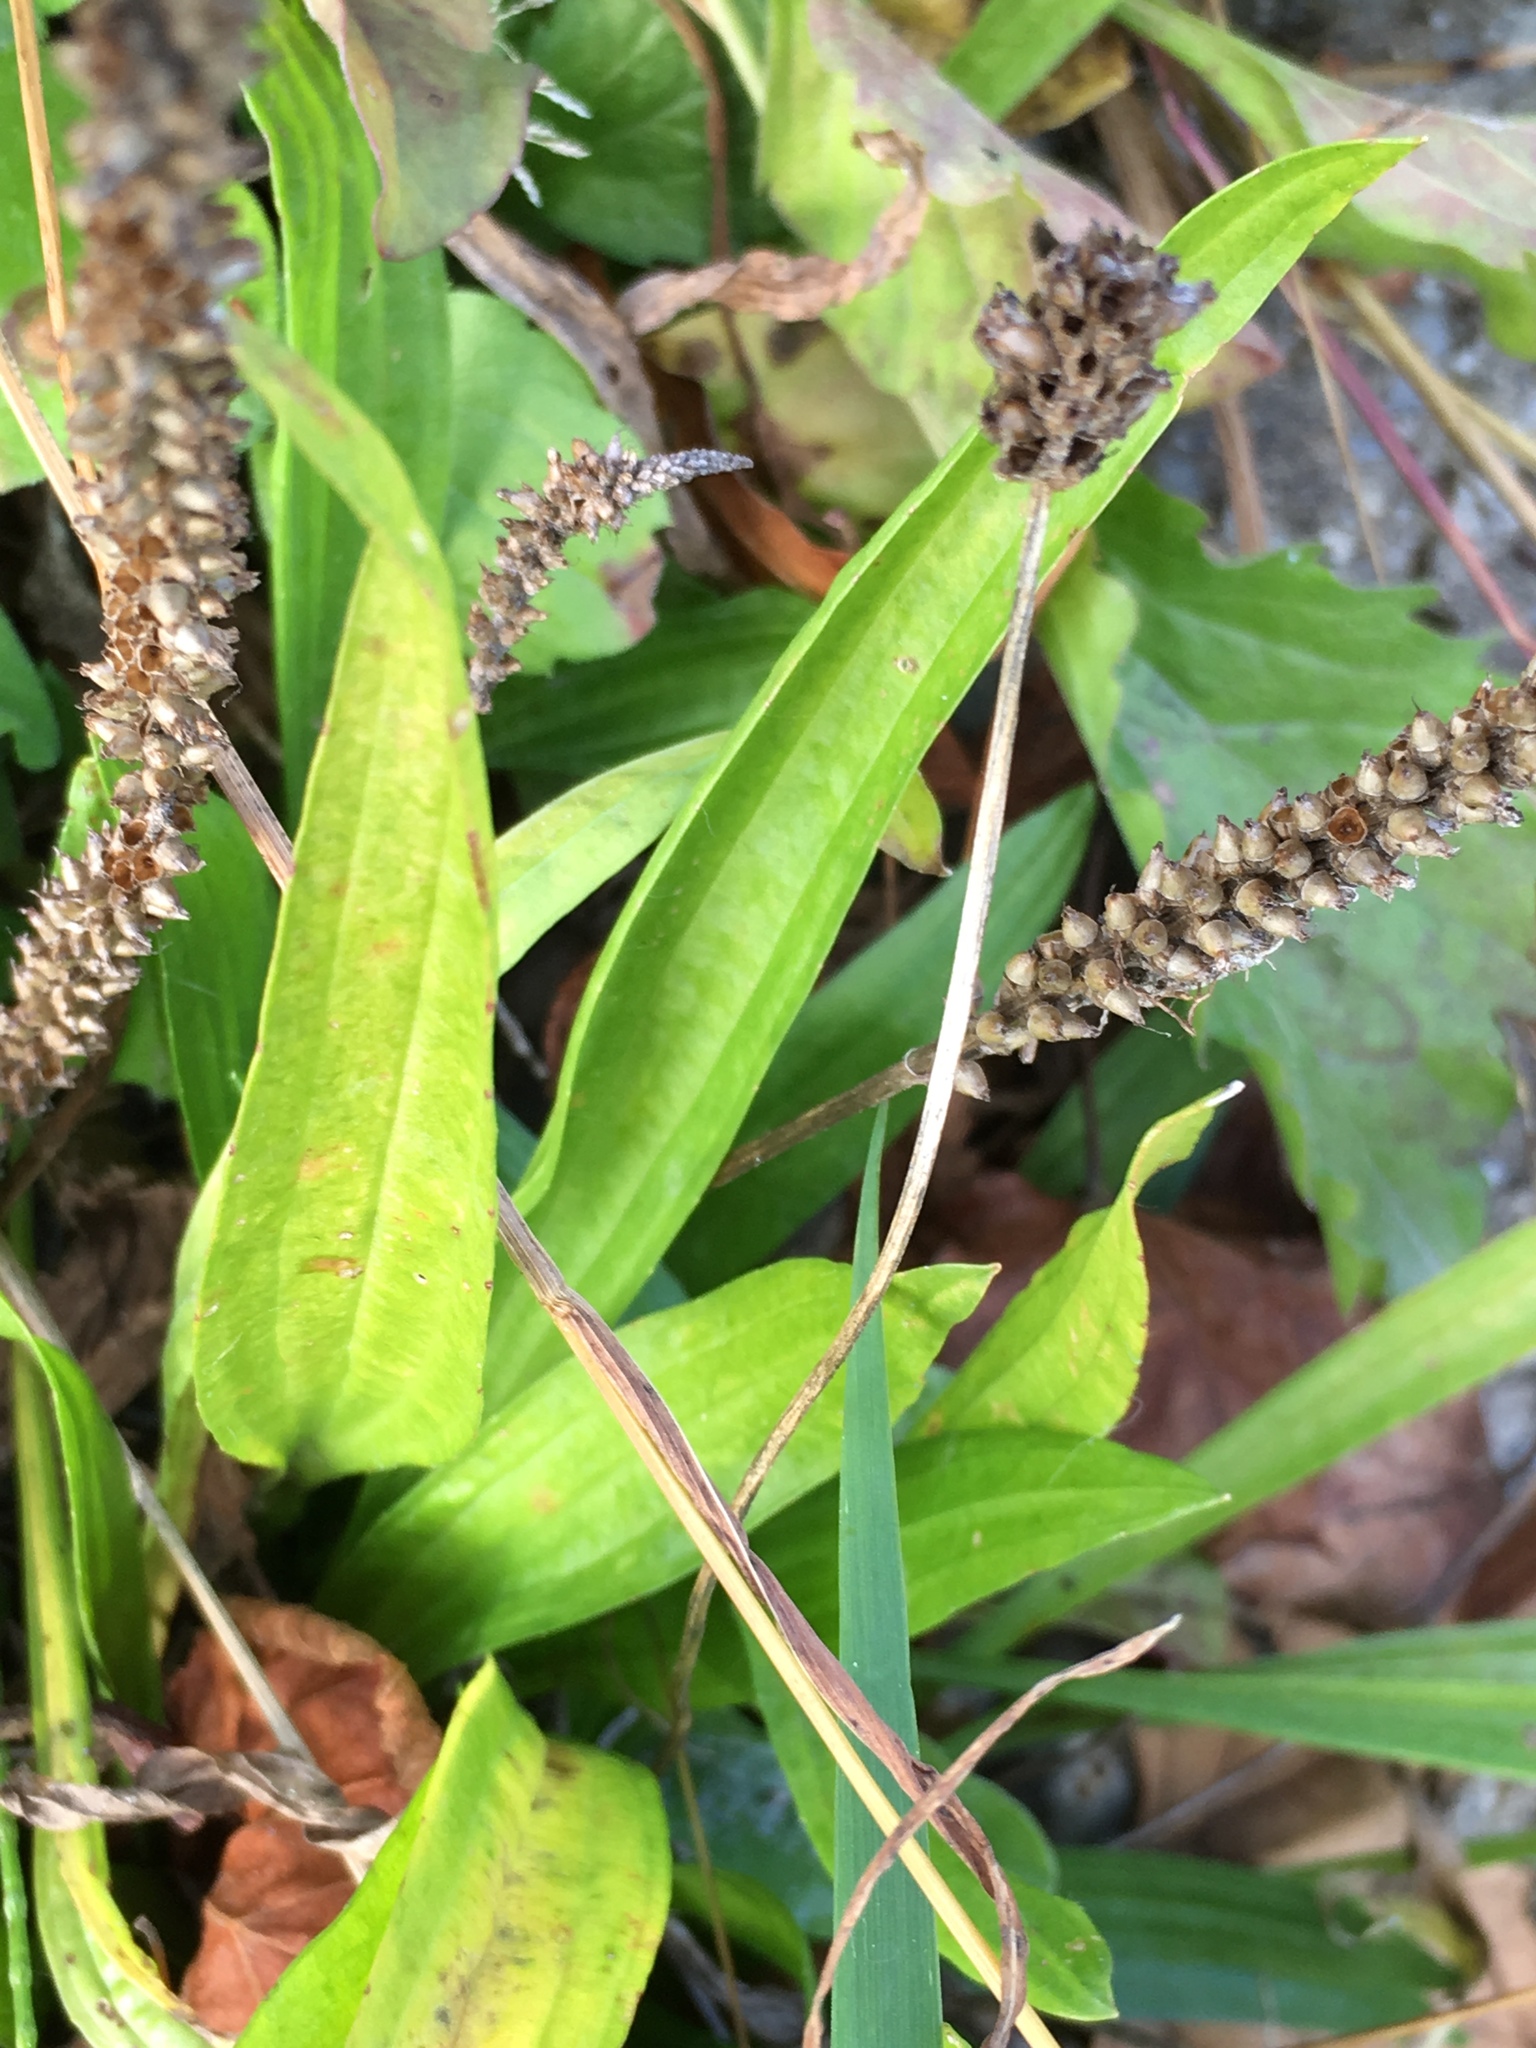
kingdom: Plantae
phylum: Tracheophyta
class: Magnoliopsida
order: Lamiales
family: Plantaginaceae
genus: Plantago
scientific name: Plantago lanceolata
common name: Ribwort plantain
